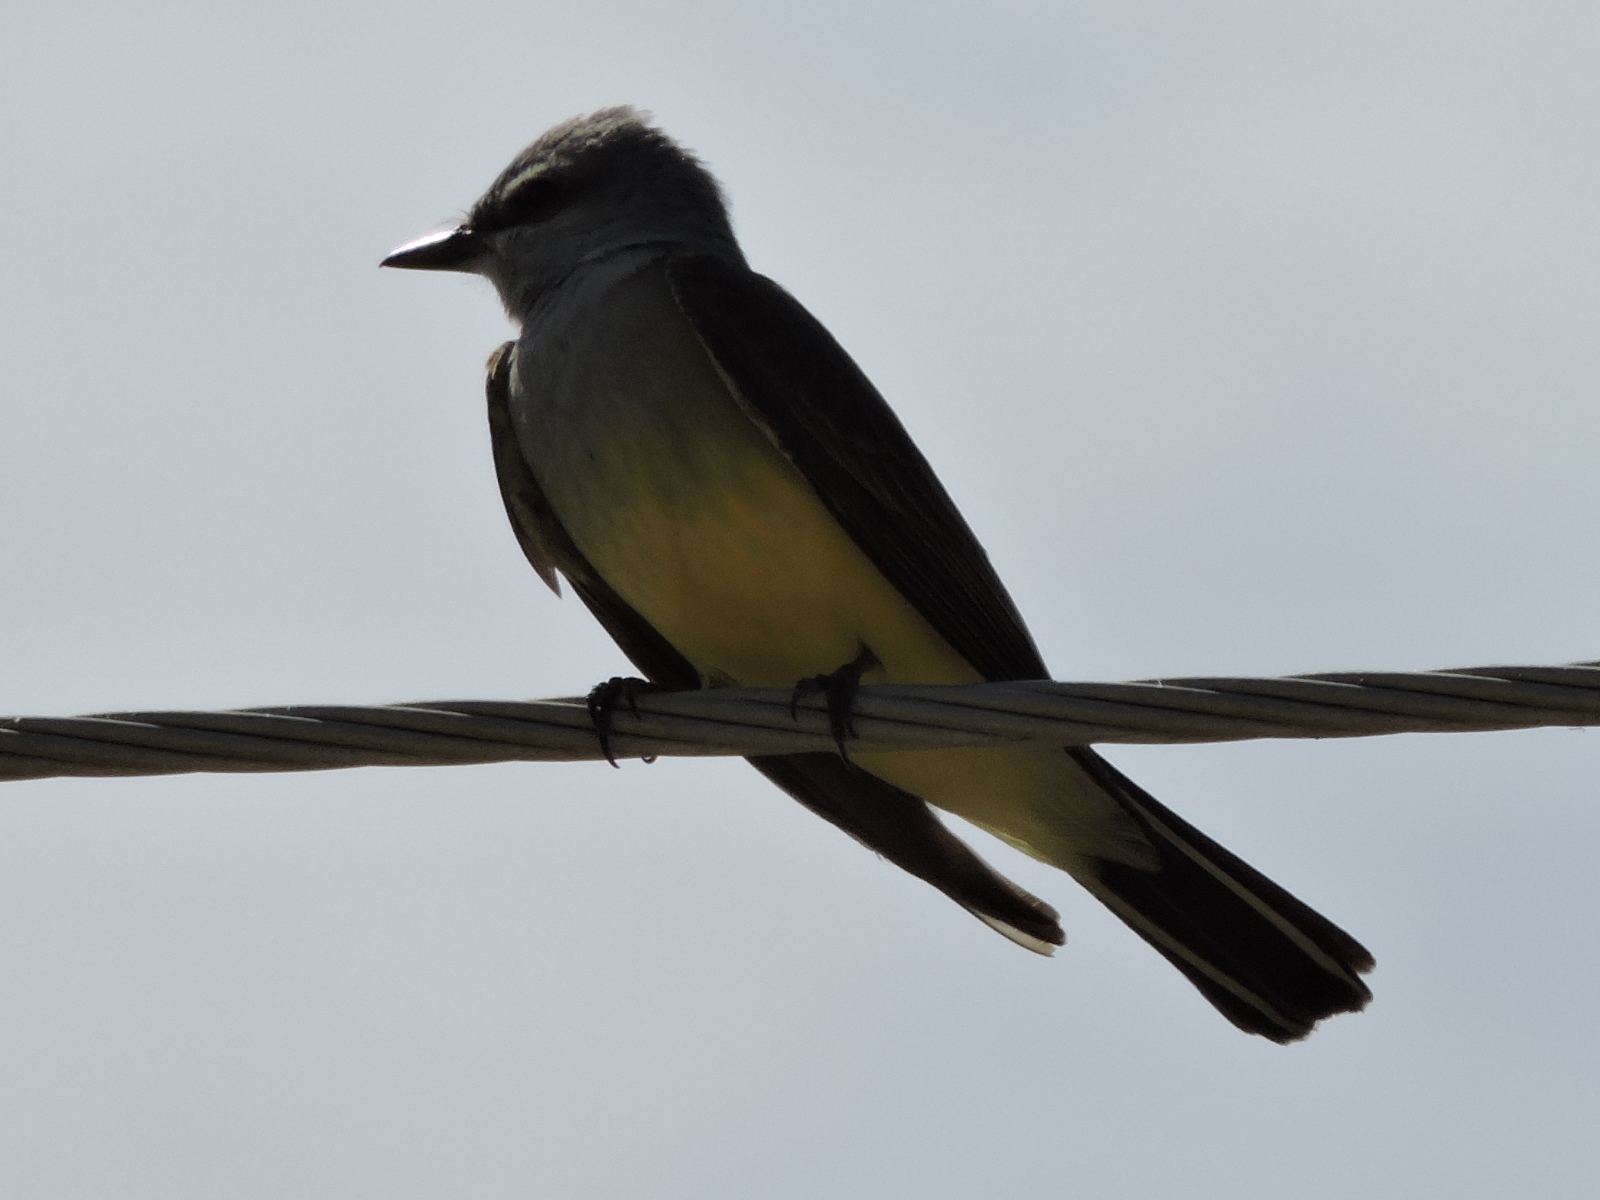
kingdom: Animalia
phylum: Chordata
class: Aves
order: Passeriformes
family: Tyrannidae
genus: Tyrannus
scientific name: Tyrannus verticalis
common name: Western kingbird
